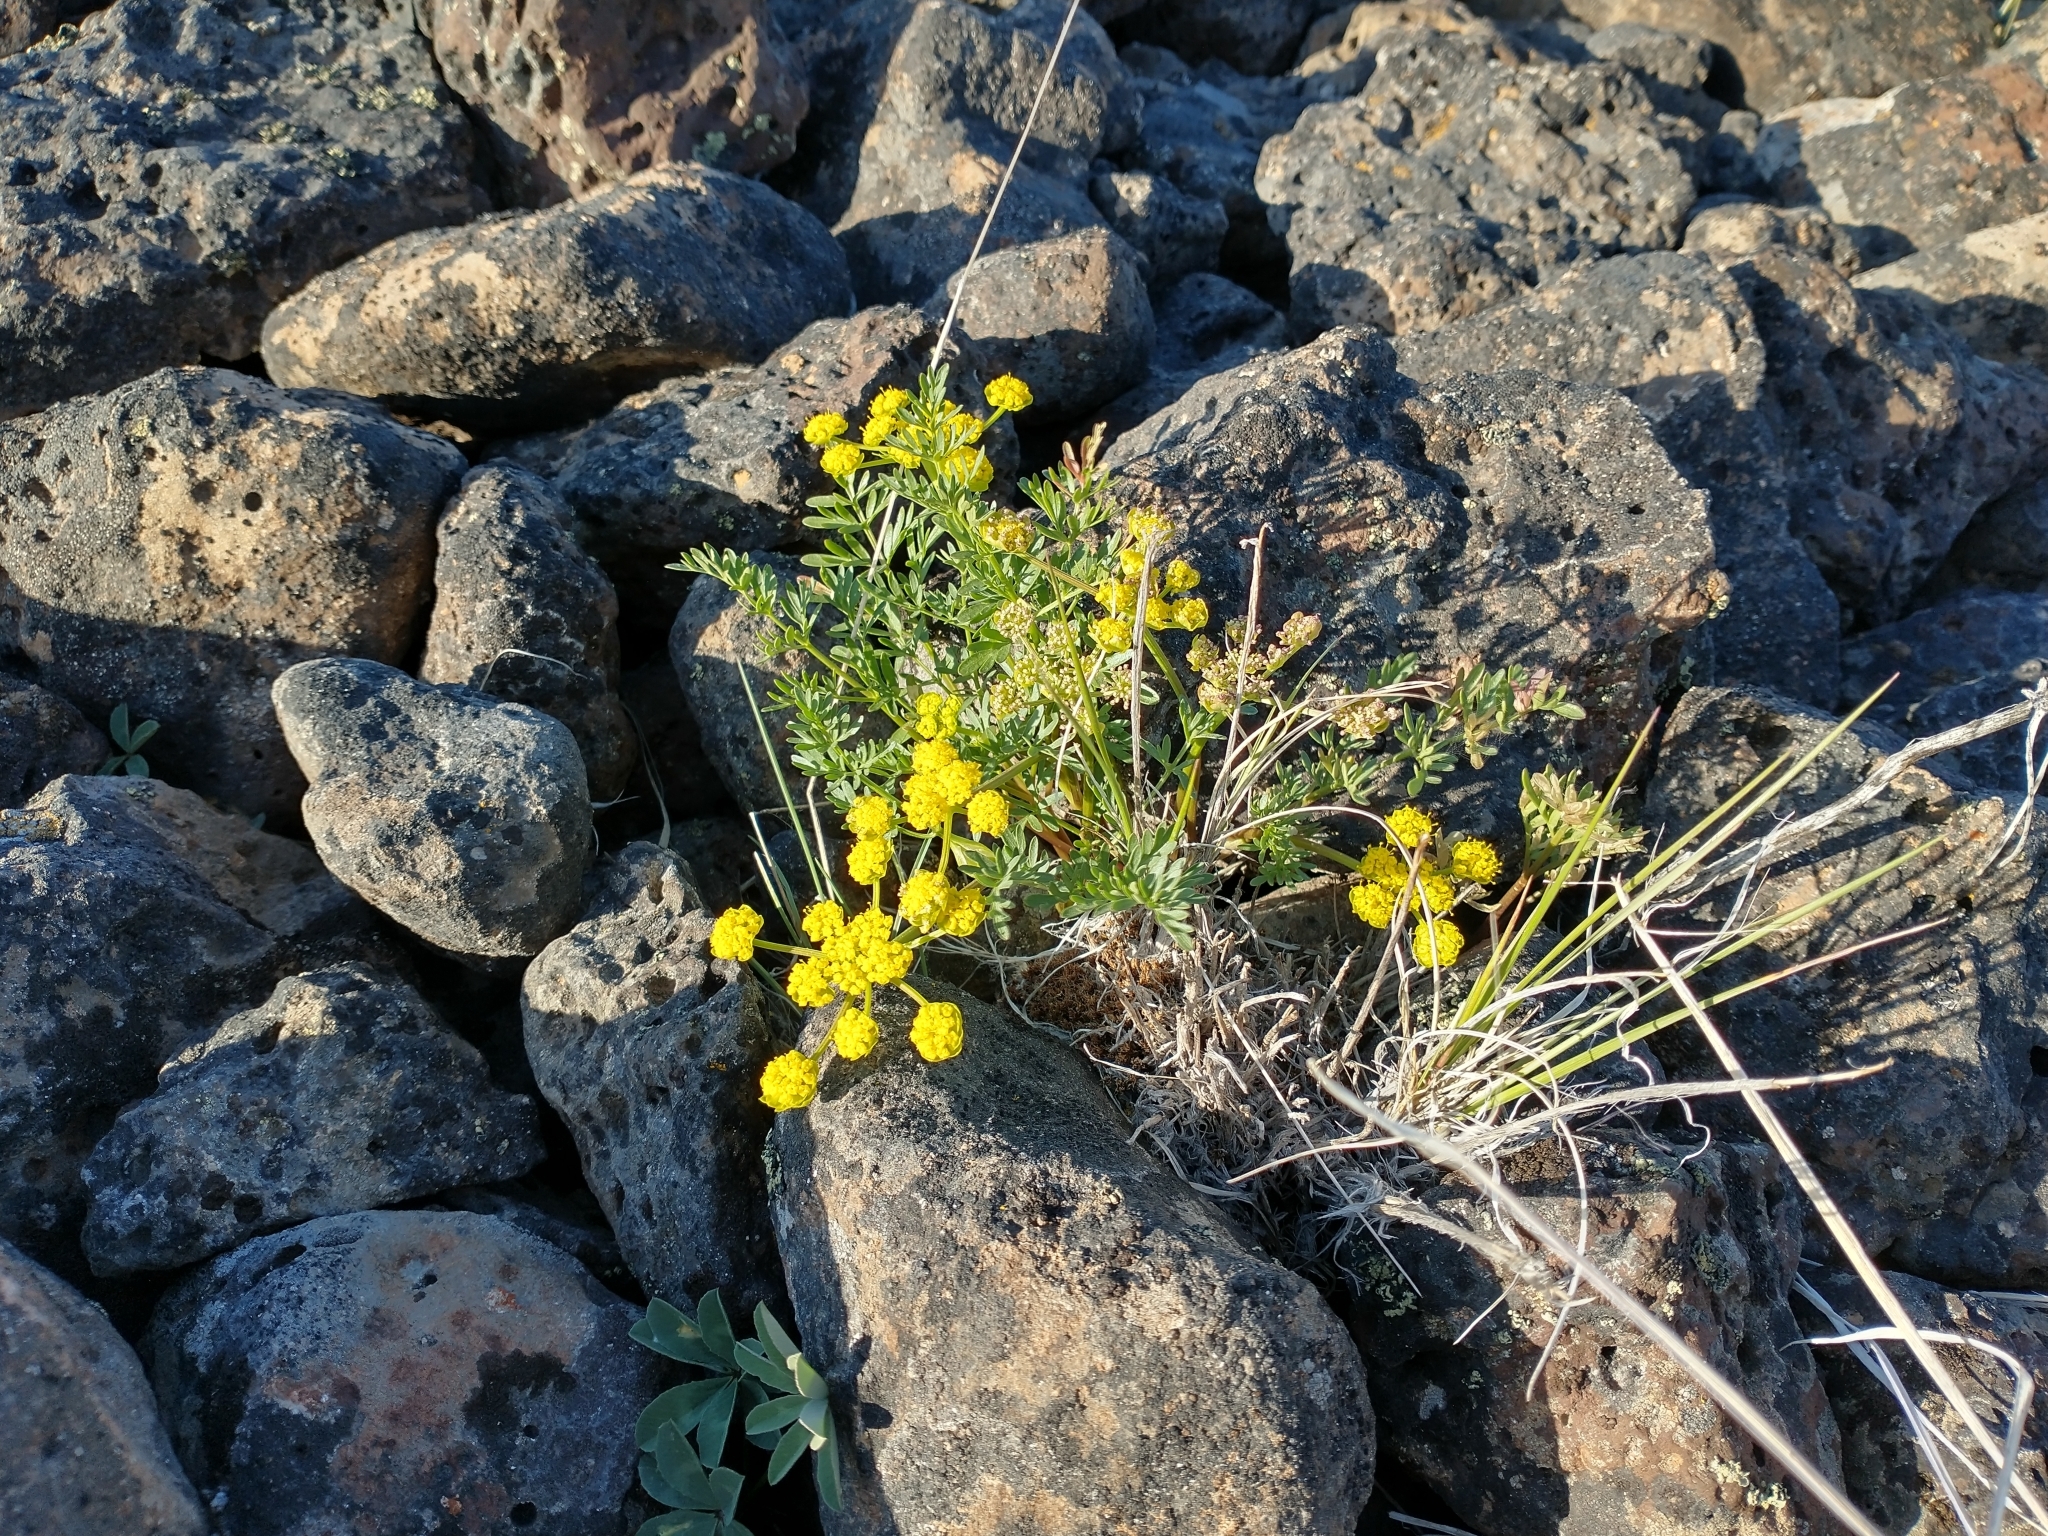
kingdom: Plantae
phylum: Tracheophyta
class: Magnoliopsida
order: Apiales
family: Apiaceae
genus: Lomatium
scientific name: Lomatium cous
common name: Biscuit-root
